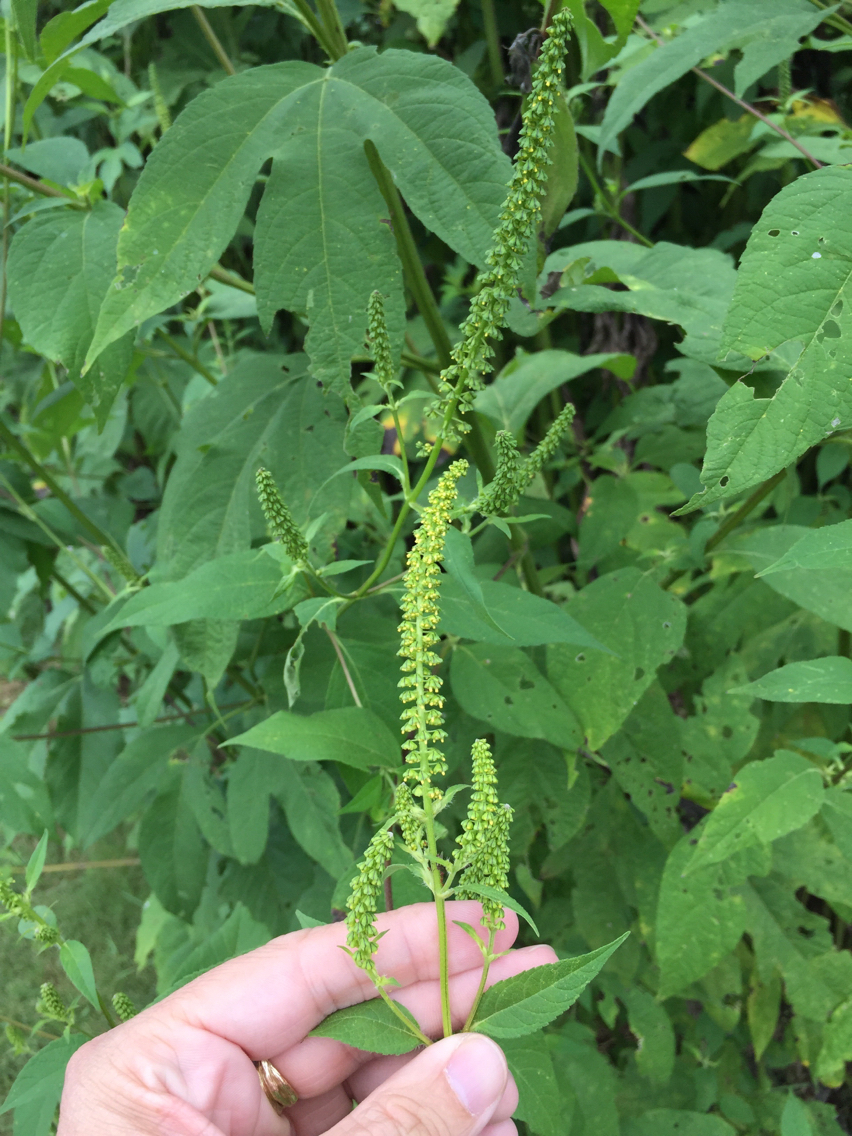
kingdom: Plantae
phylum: Tracheophyta
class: Magnoliopsida
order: Asterales
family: Asteraceae
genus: Ambrosia
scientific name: Ambrosia trifida
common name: Giant ragweed
